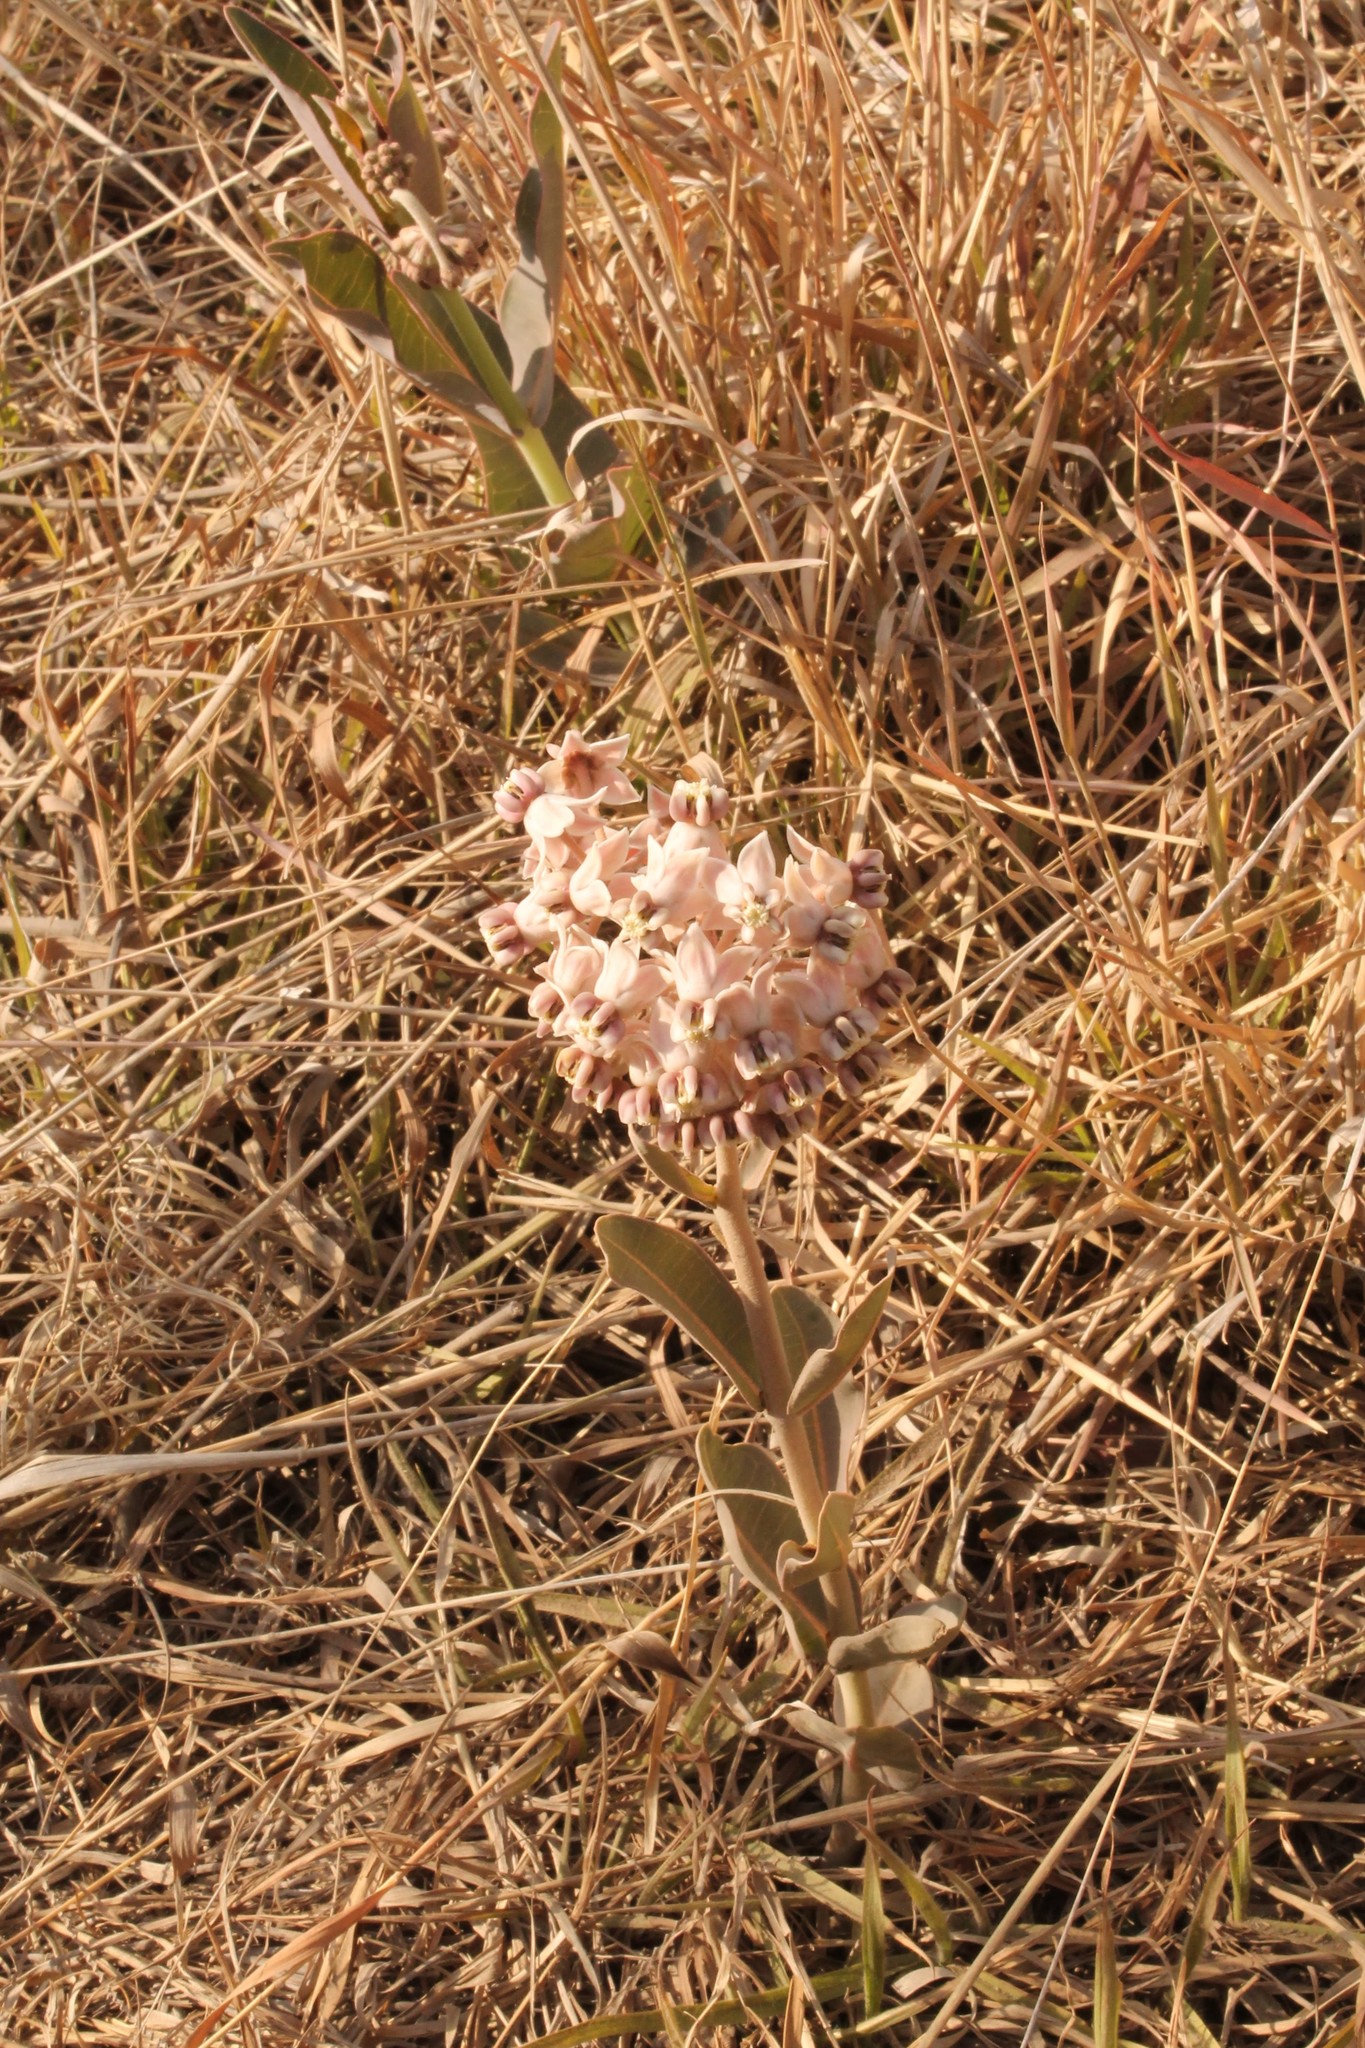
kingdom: Plantae
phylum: Tracheophyta
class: Magnoliopsida
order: Gentianales
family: Apocynaceae
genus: Asclepias
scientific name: Asclepias elata
